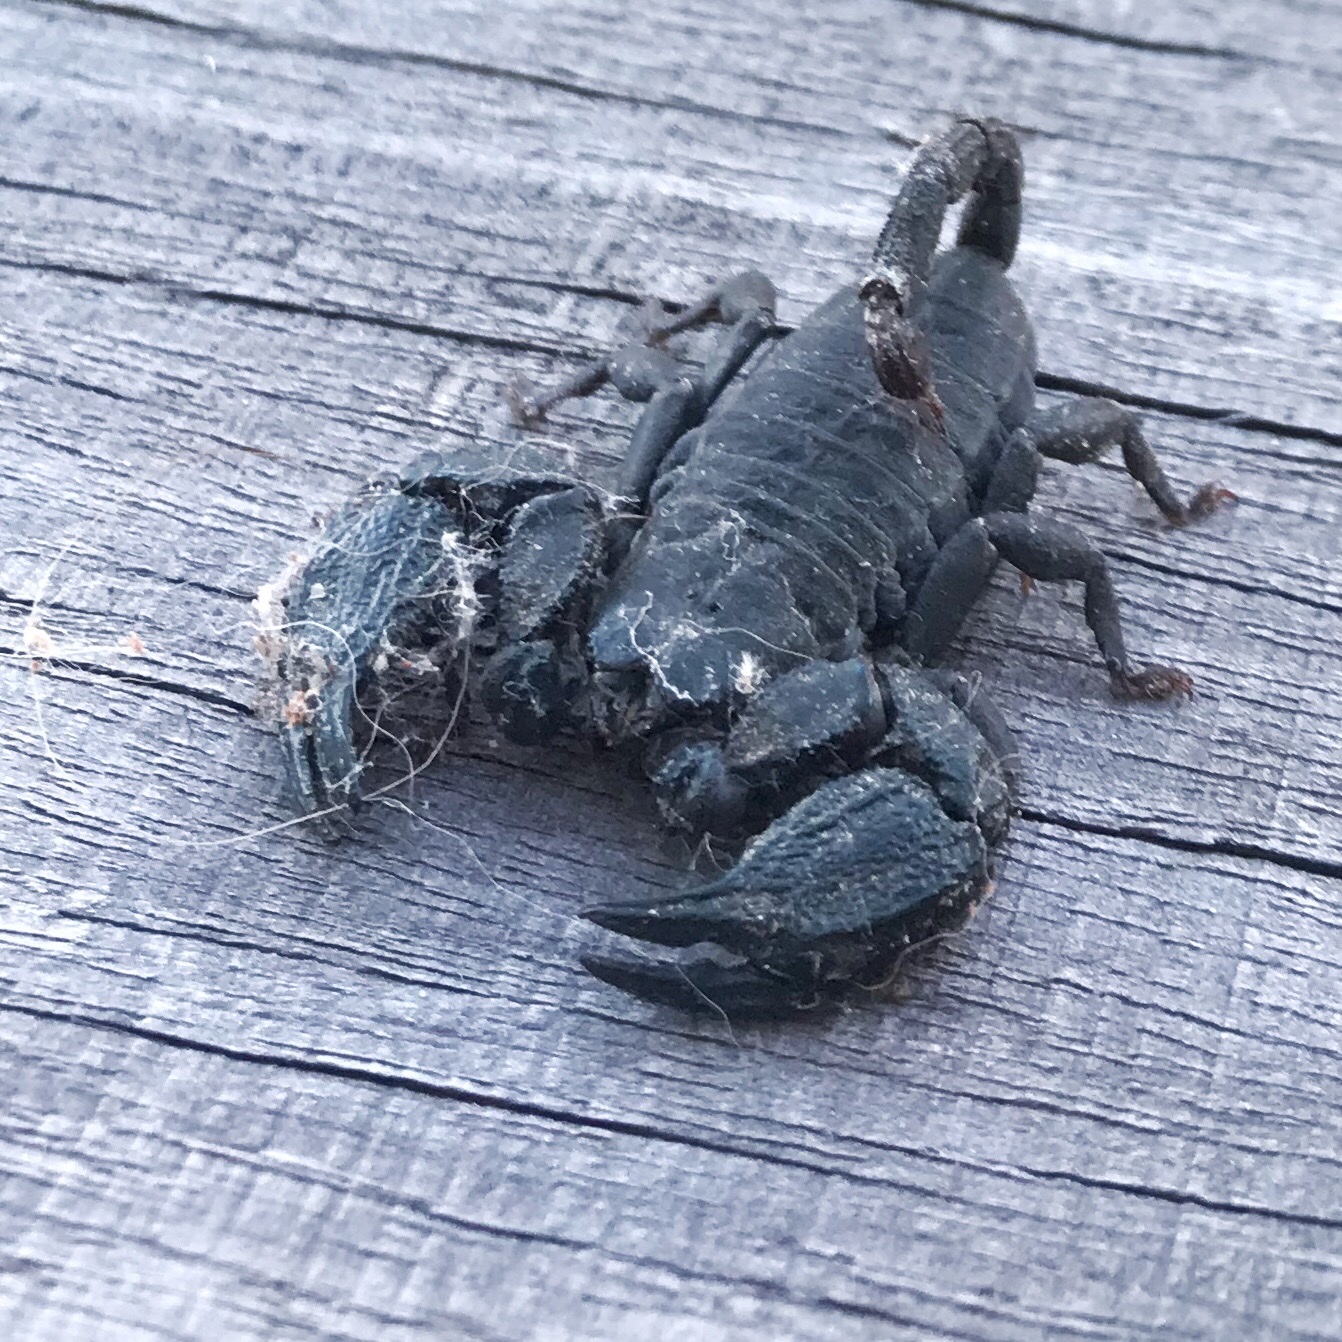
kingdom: Animalia
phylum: Arthropoda
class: Arachnida
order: Scorpiones
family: Hormuridae
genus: Opisthacanthus
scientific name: Opisthacanthus capensis
